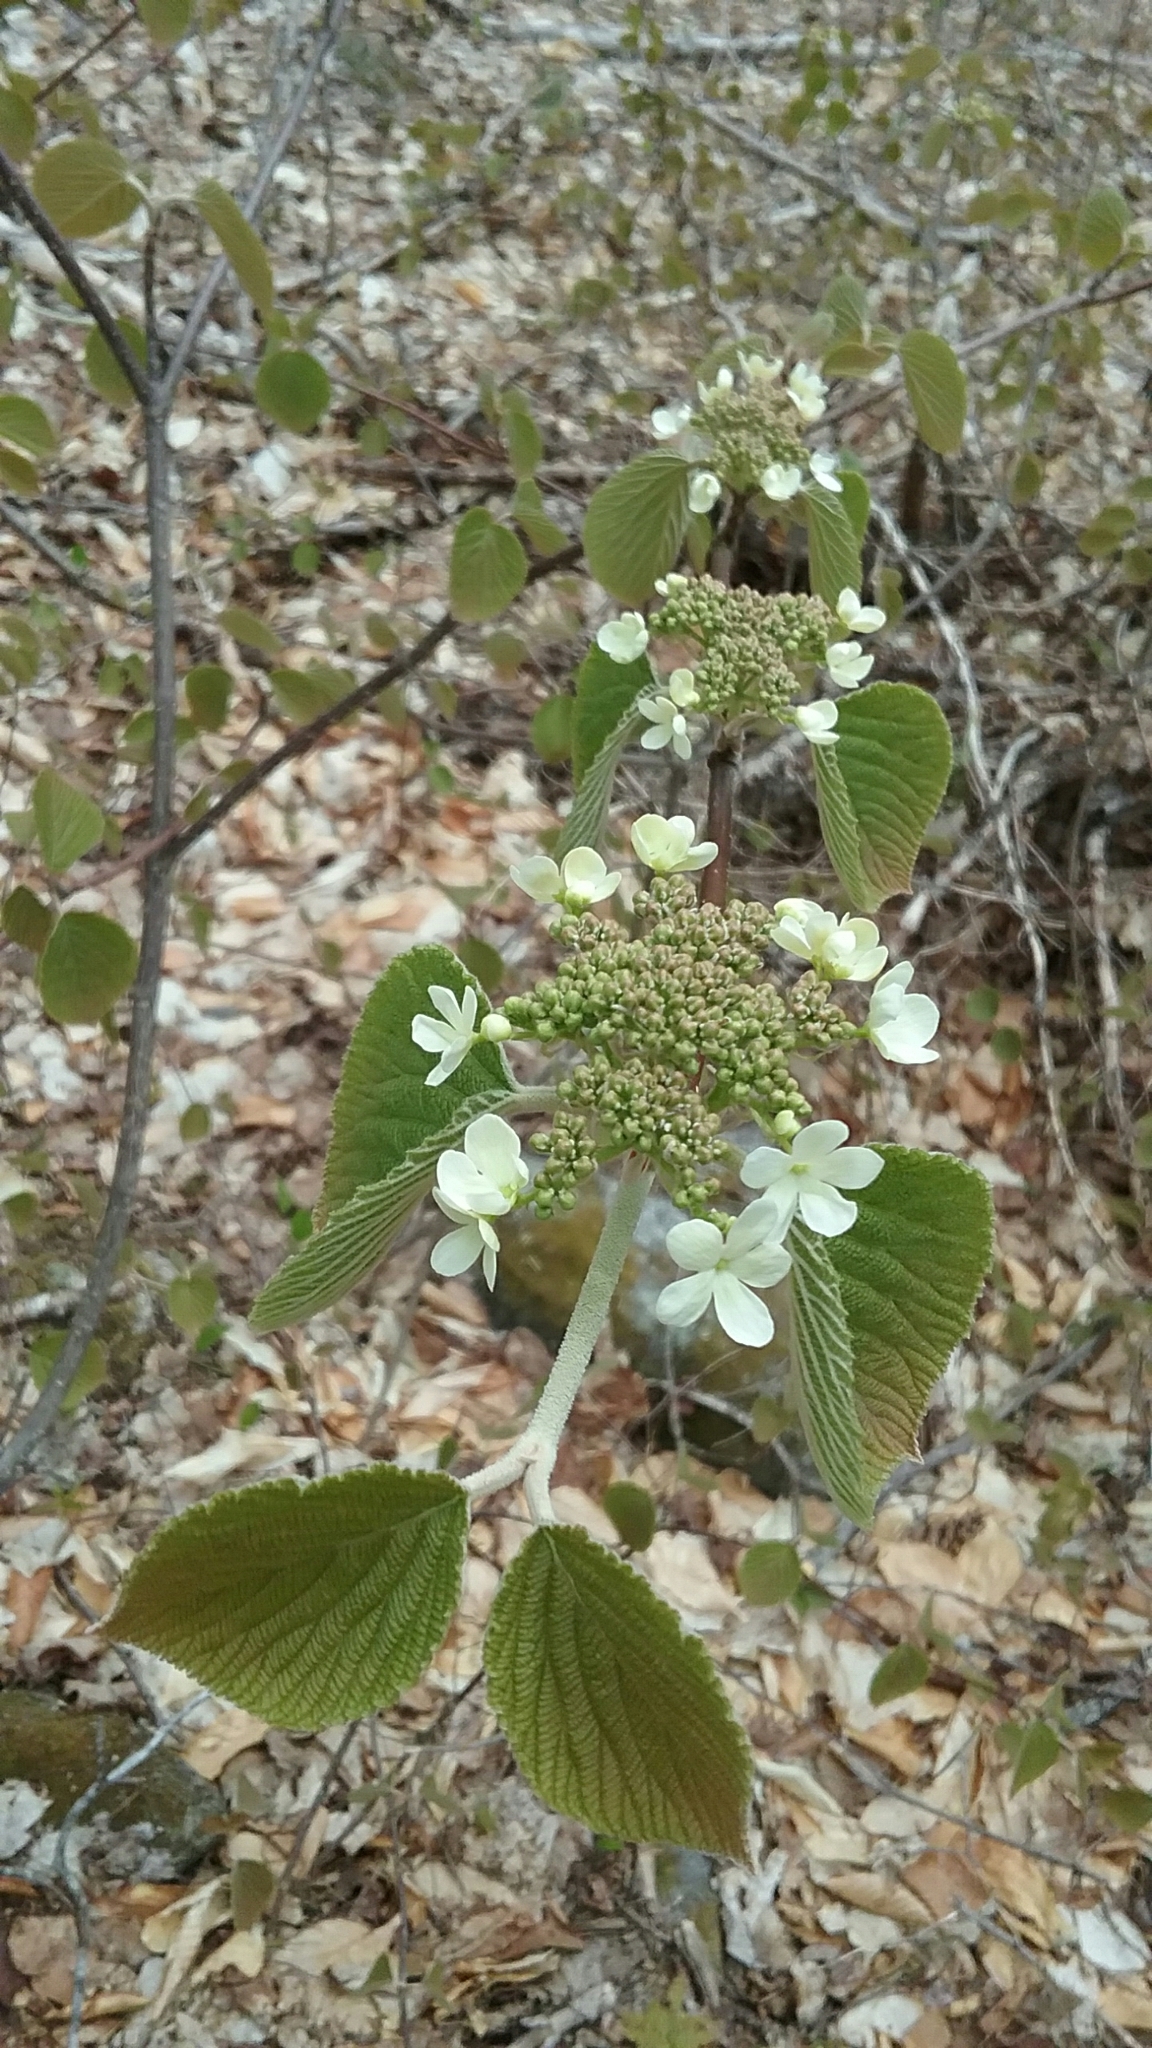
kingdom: Plantae
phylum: Tracheophyta
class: Magnoliopsida
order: Dipsacales
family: Viburnaceae
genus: Viburnum
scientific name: Viburnum lantanoides
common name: Hobblebush
